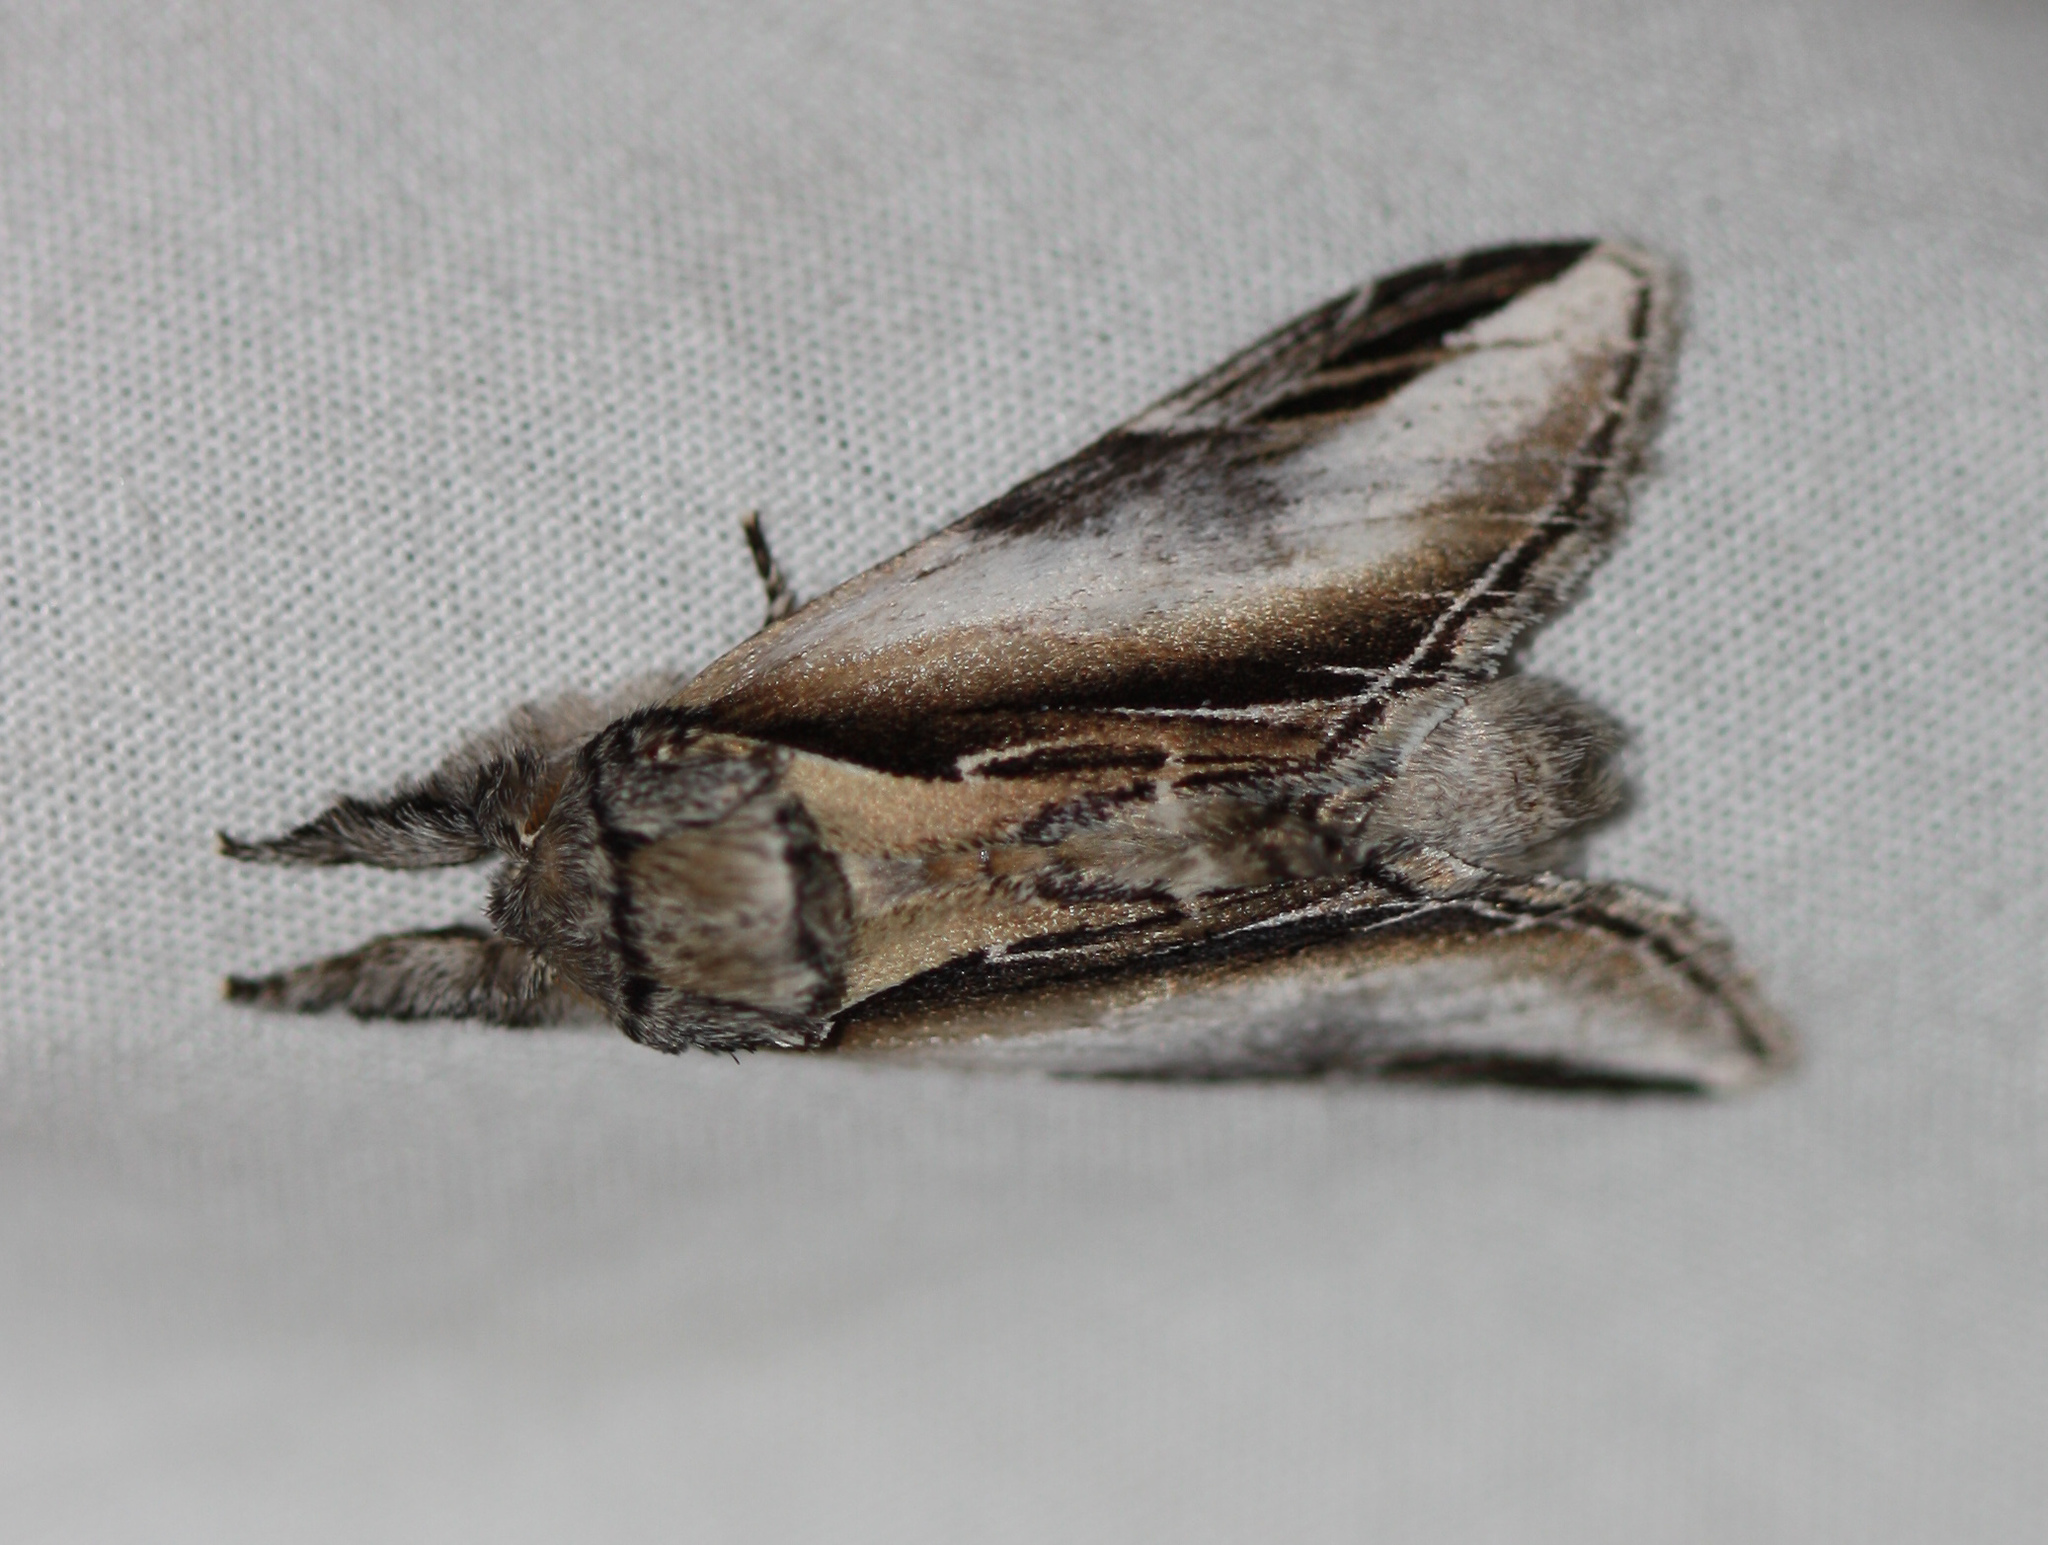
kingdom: Animalia
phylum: Arthropoda
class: Insecta
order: Lepidoptera
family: Notodontidae
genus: Pheosia
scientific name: Pheosia rimosa
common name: Black-rimmed prominent
